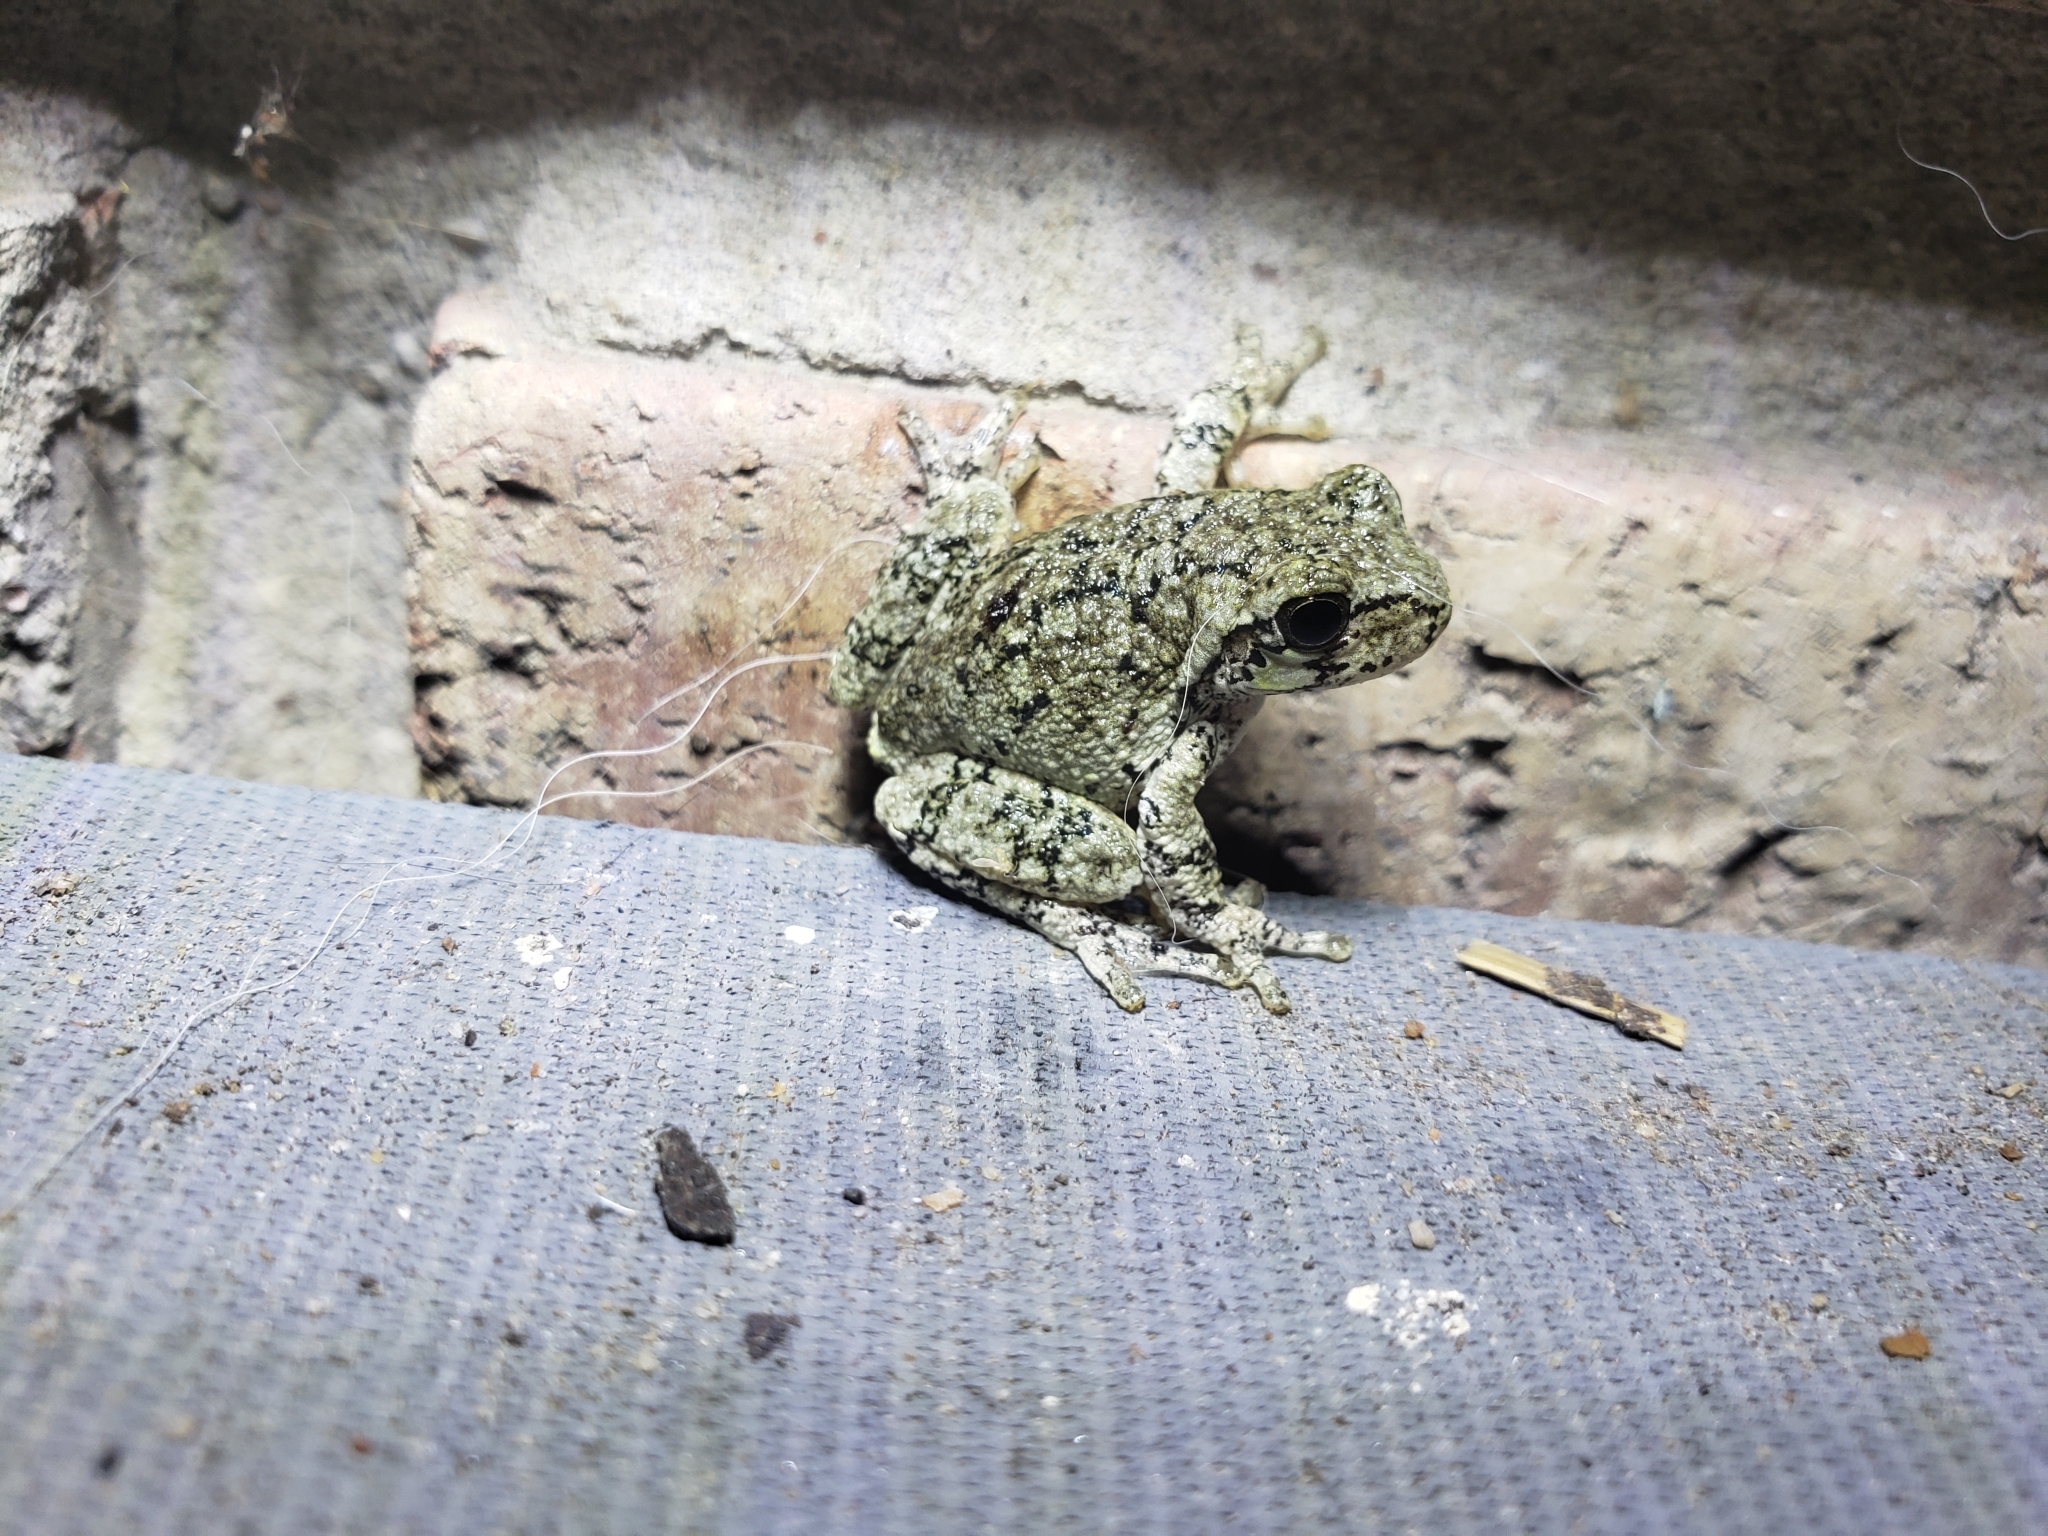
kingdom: Animalia
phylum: Chordata
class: Amphibia
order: Anura
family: Hylidae
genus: Dryophytes
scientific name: Dryophytes versicolor
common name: Gray treefrog
